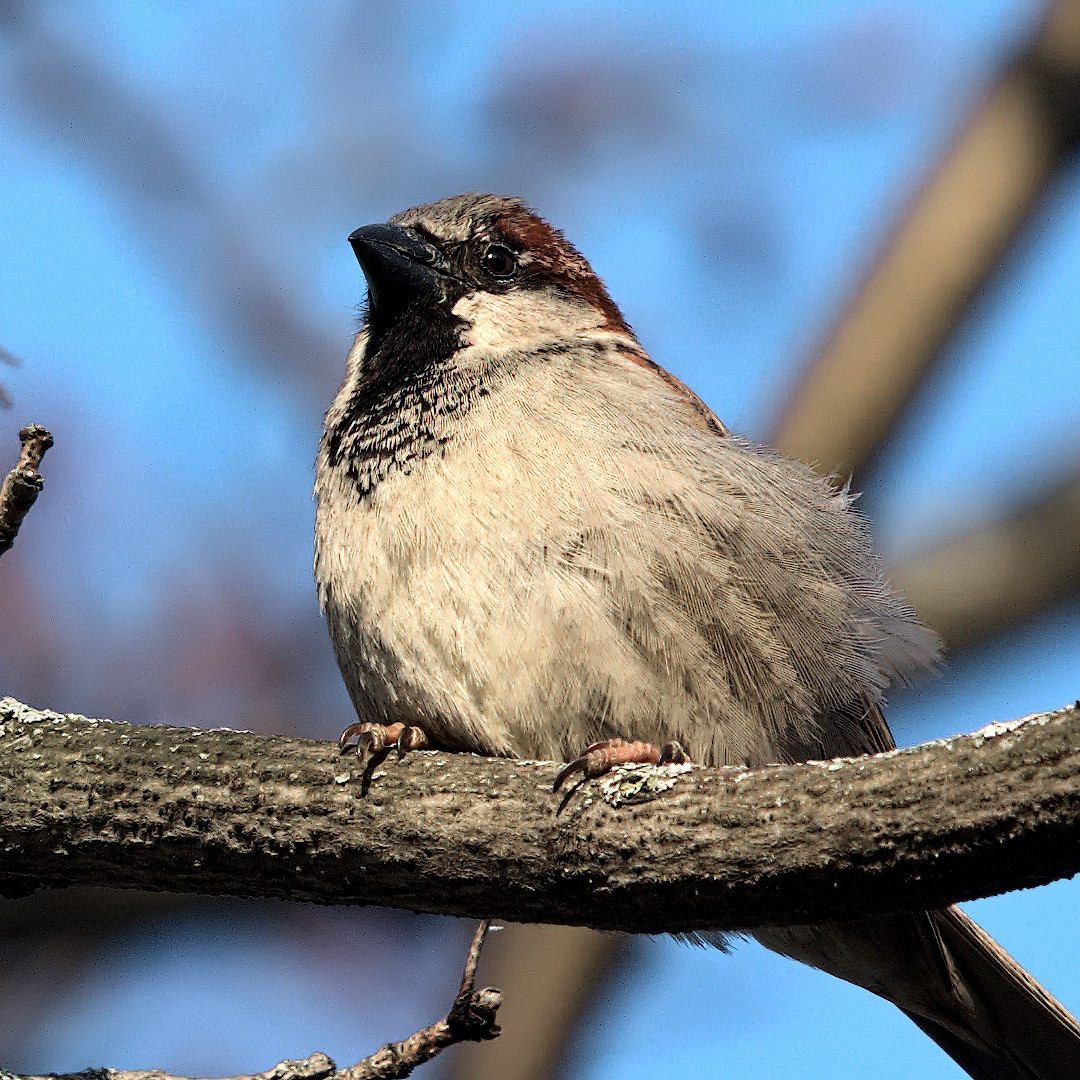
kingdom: Animalia
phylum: Chordata
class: Aves
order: Passeriformes
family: Passeridae
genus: Passer
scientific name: Passer domesticus
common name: House sparrow
